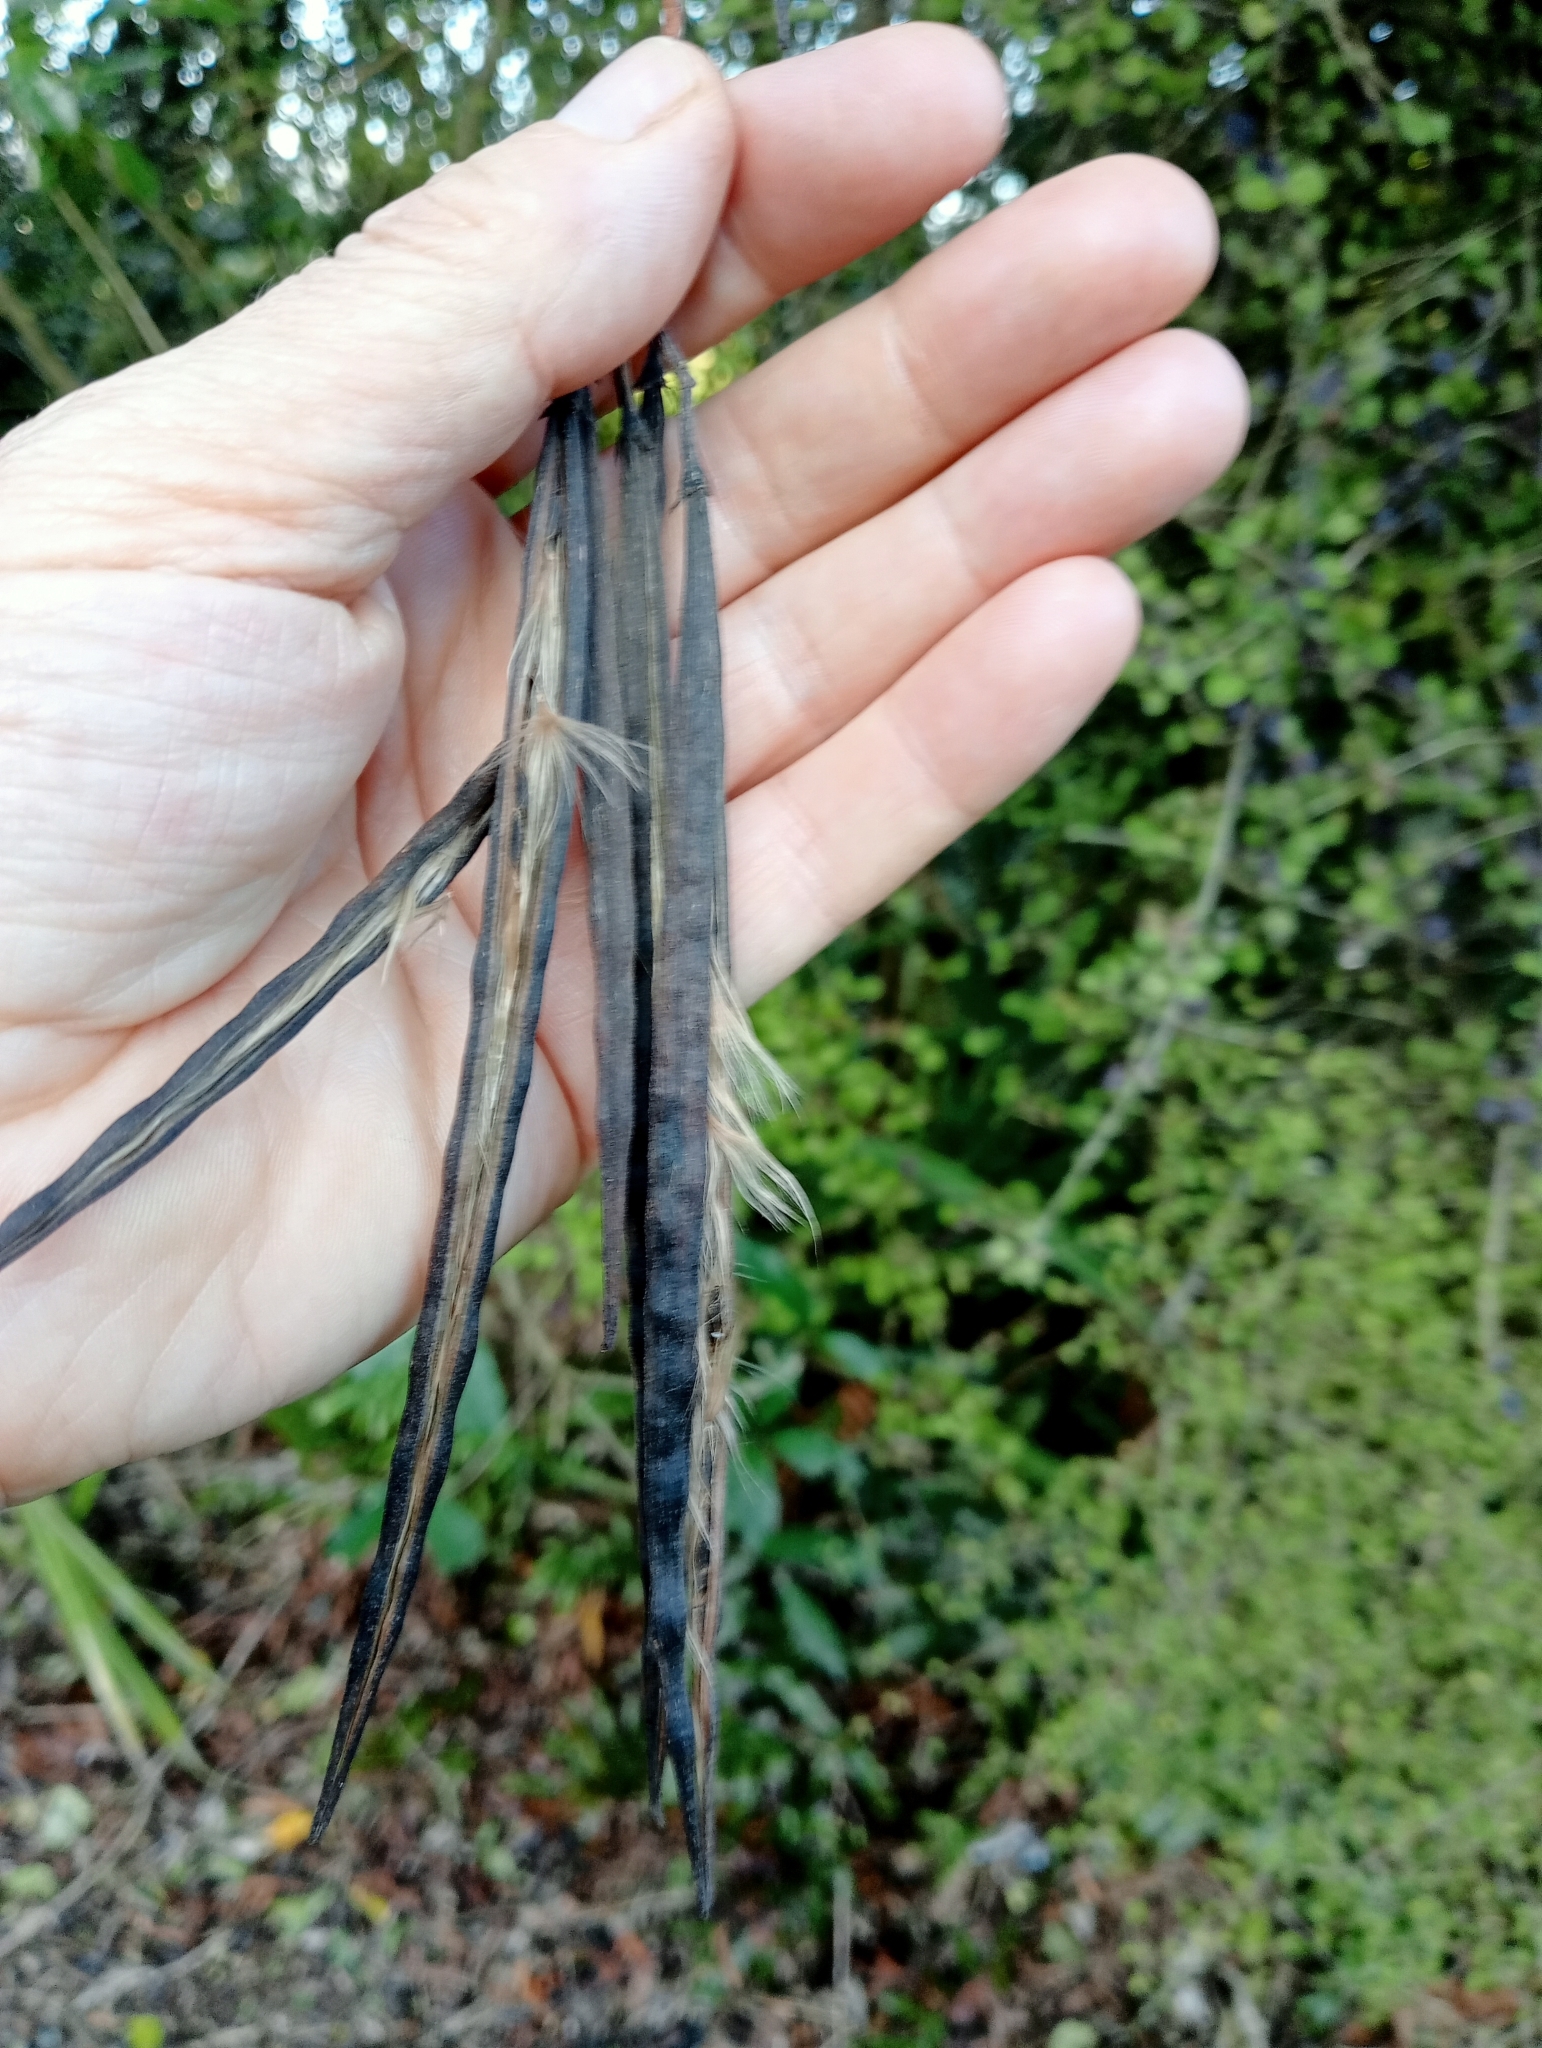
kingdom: Plantae
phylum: Tracheophyta
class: Magnoliopsida
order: Gentianales
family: Apocynaceae
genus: Parsonsia
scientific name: Parsonsia heterophylla
